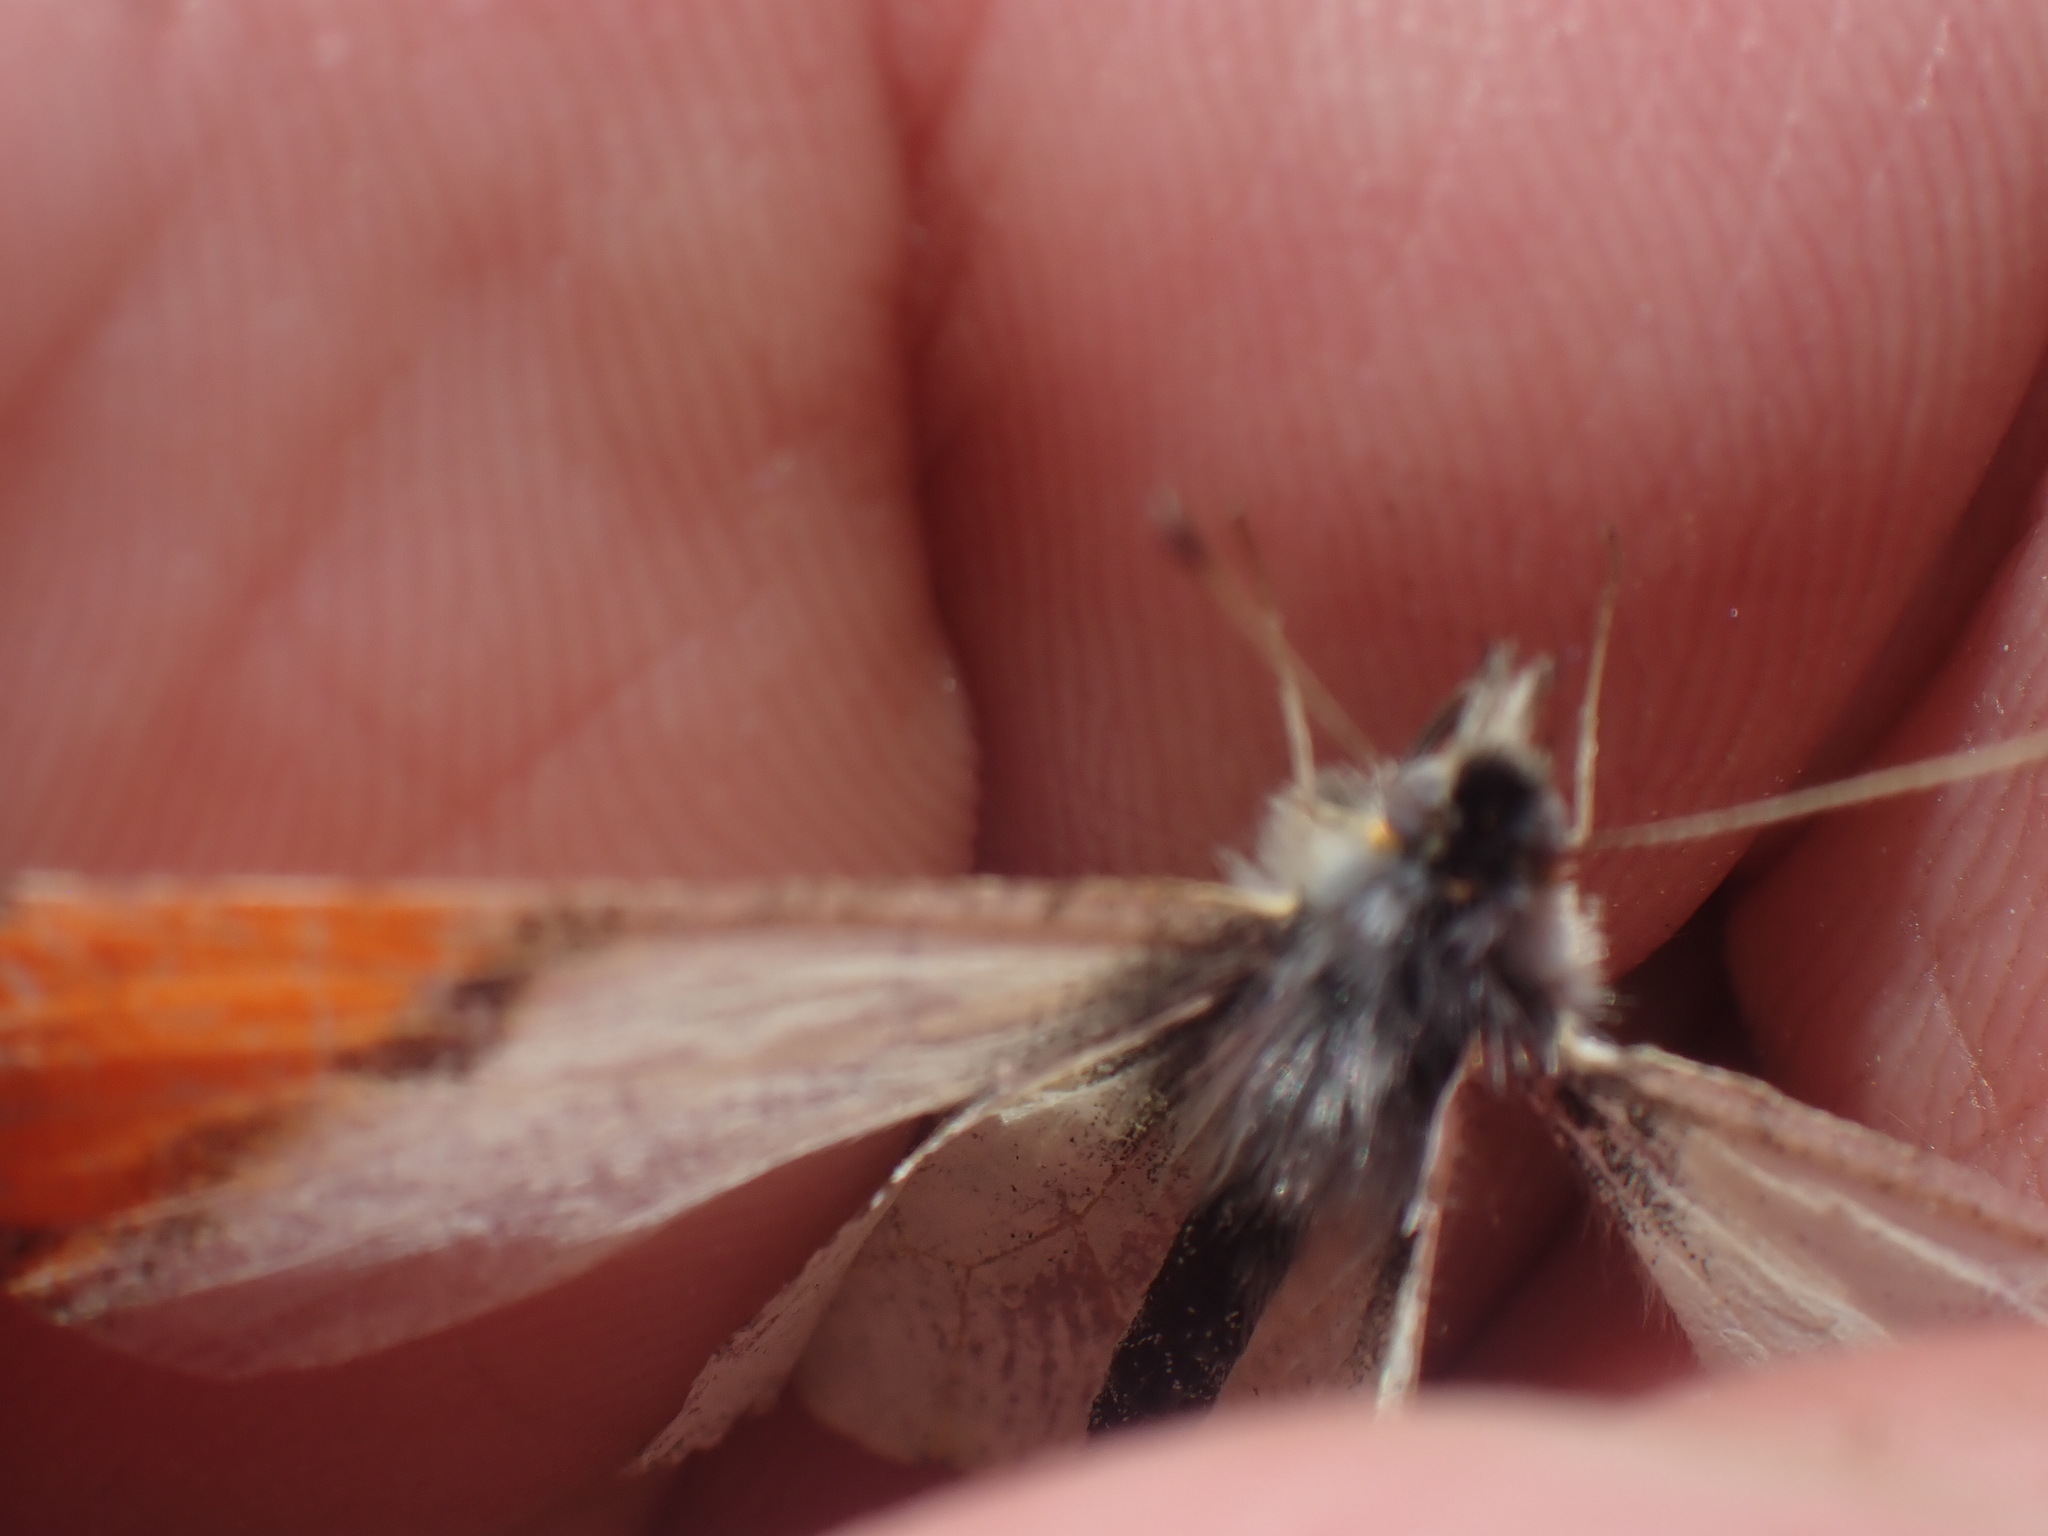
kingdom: Animalia
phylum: Arthropoda
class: Insecta
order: Lepidoptera
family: Pieridae
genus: Anthocharis
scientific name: Anthocharis julia
